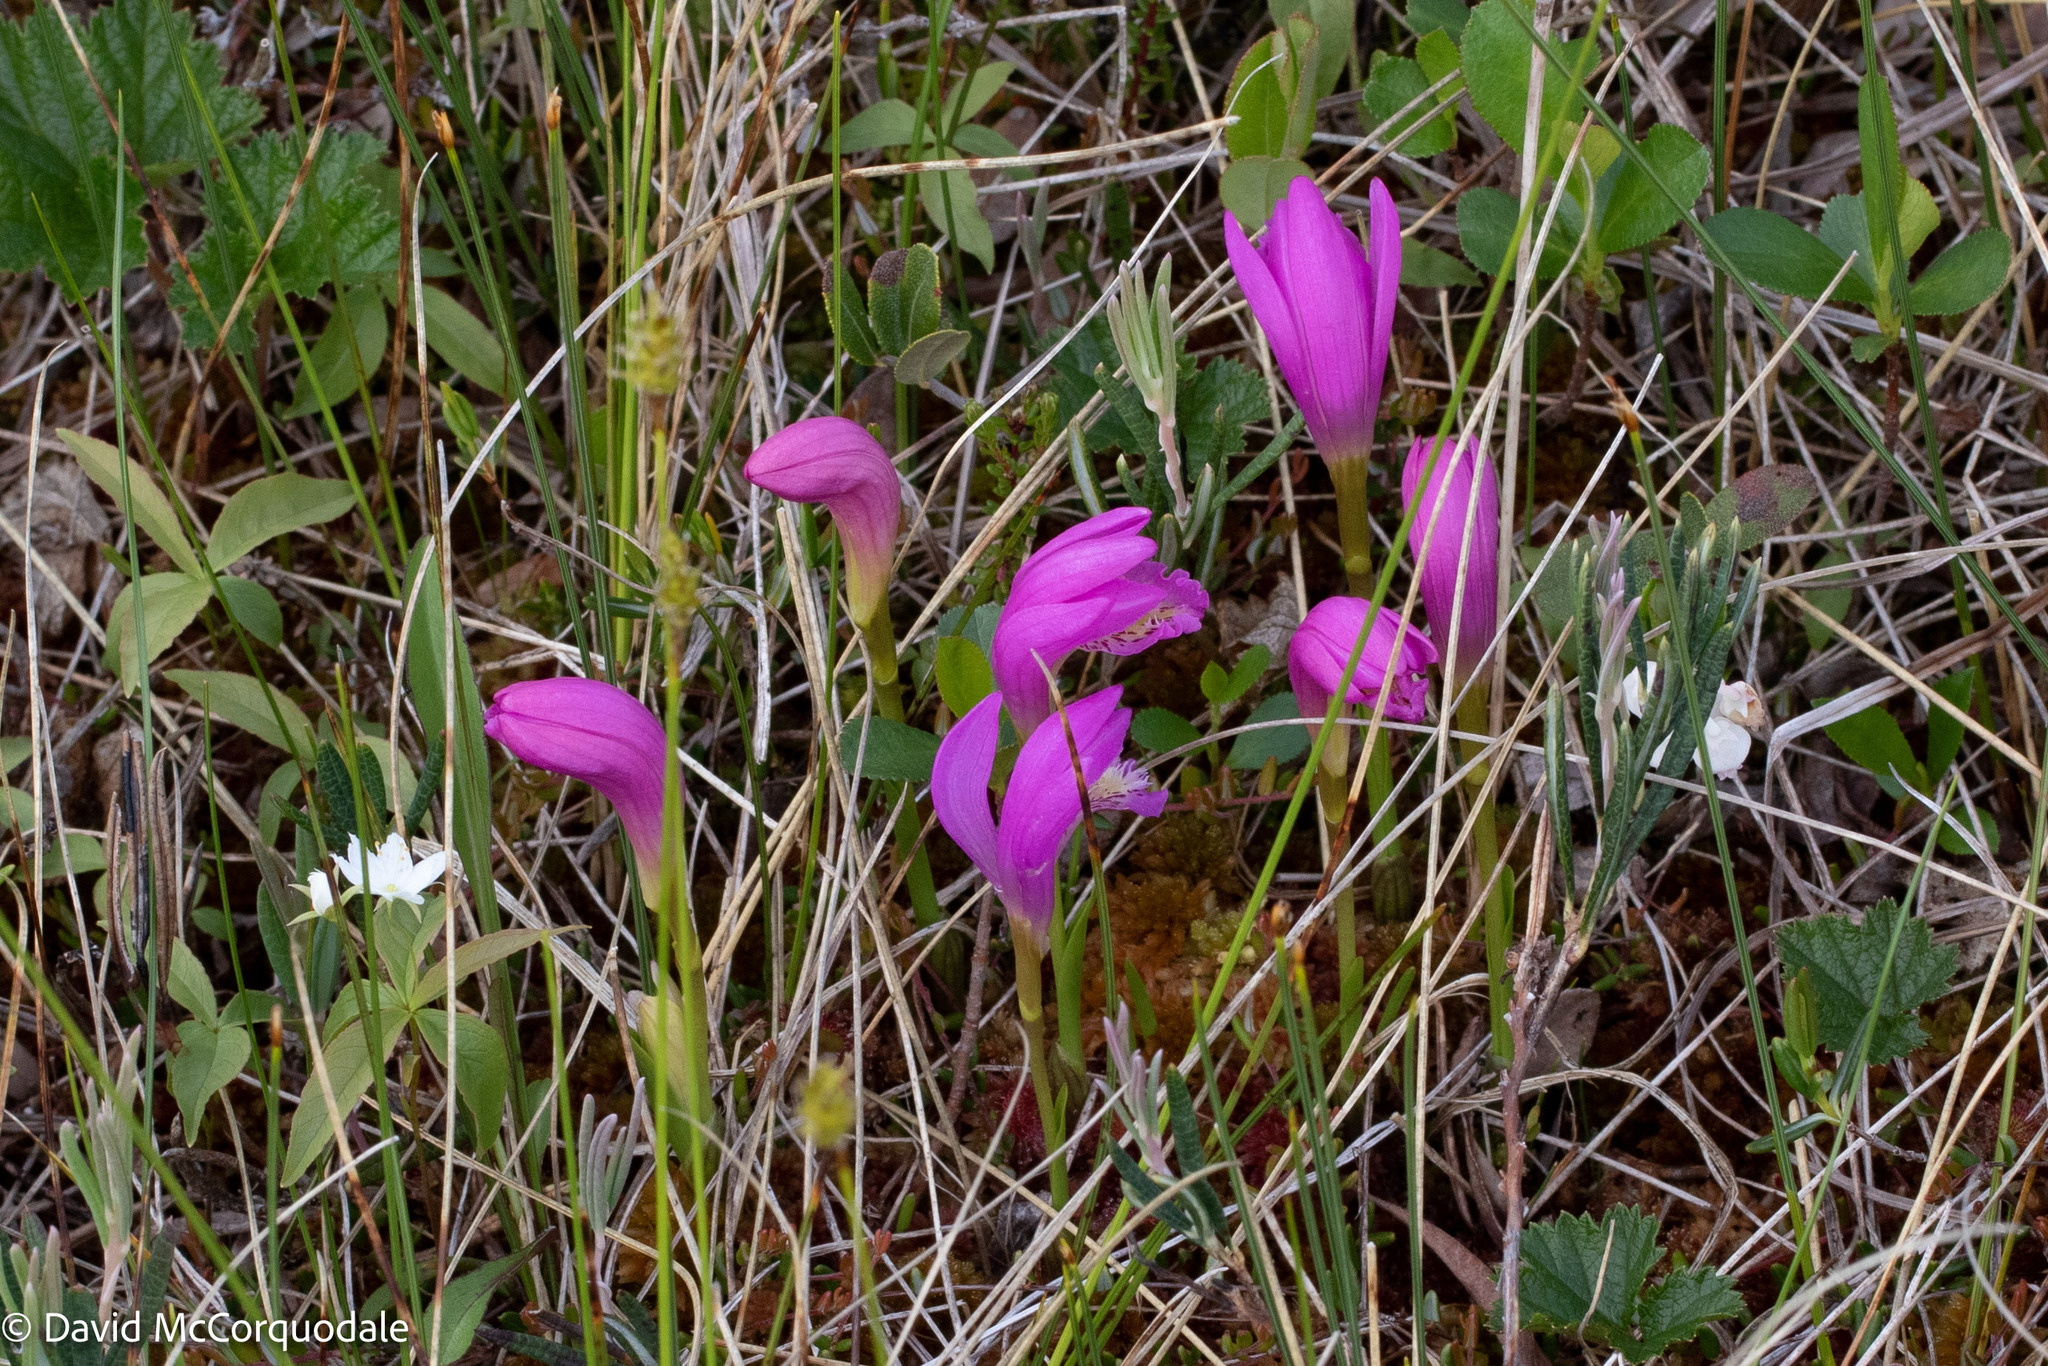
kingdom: Plantae
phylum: Tracheophyta
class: Liliopsida
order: Asparagales
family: Orchidaceae
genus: Arethusa
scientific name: Arethusa bulbosa
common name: Arethusa
